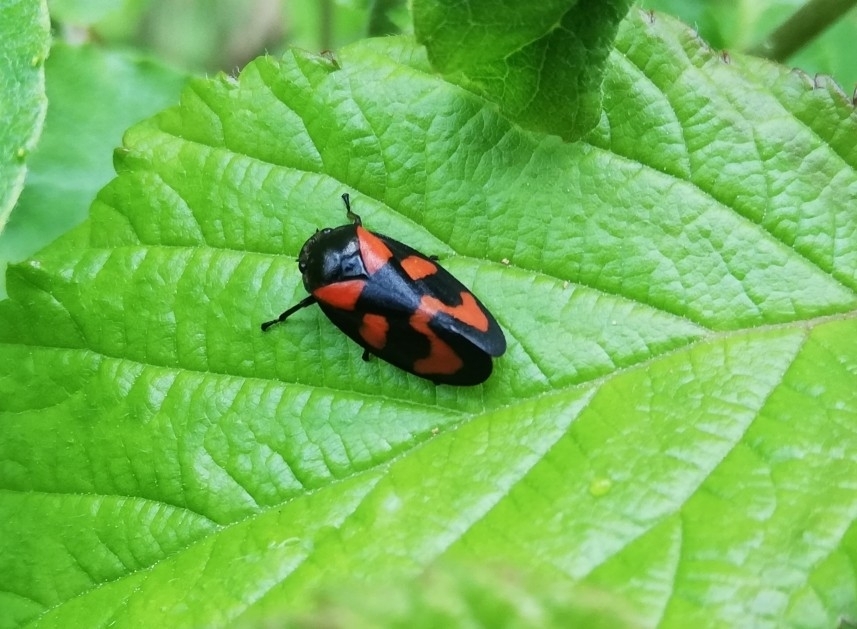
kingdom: Animalia
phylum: Arthropoda
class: Insecta
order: Hemiptera
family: Cercopidae
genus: Cercopis
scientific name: Cercopis vulnerata
